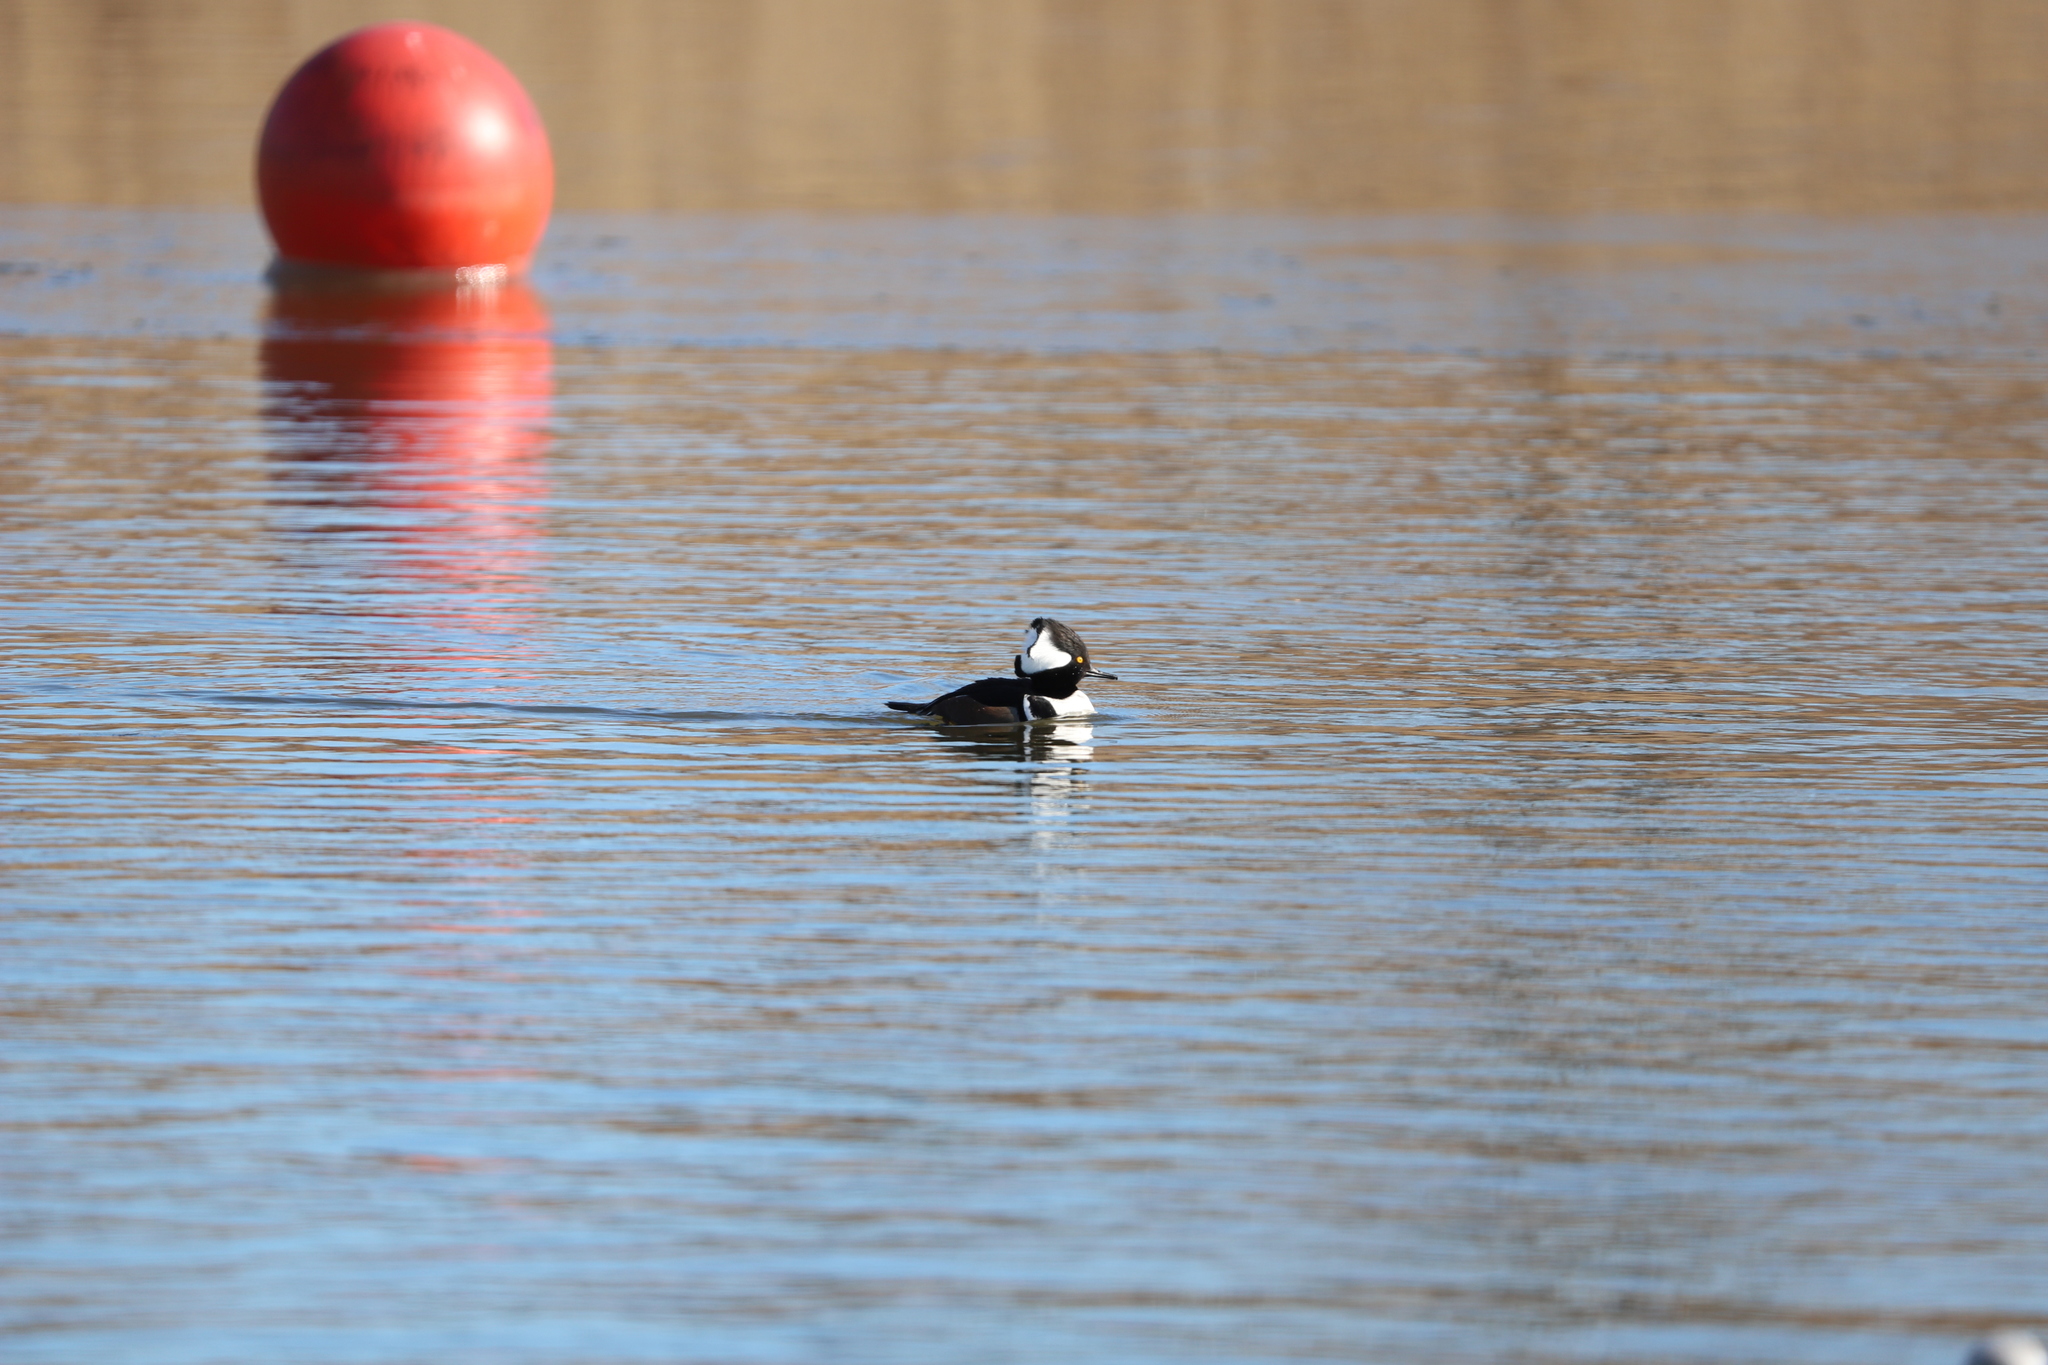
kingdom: Animalia
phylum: Chordata
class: Aves
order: Anseriformes
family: Anatidae
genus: Lophodytes
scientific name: Lophodytes cucullatus
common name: Hooded merganser
